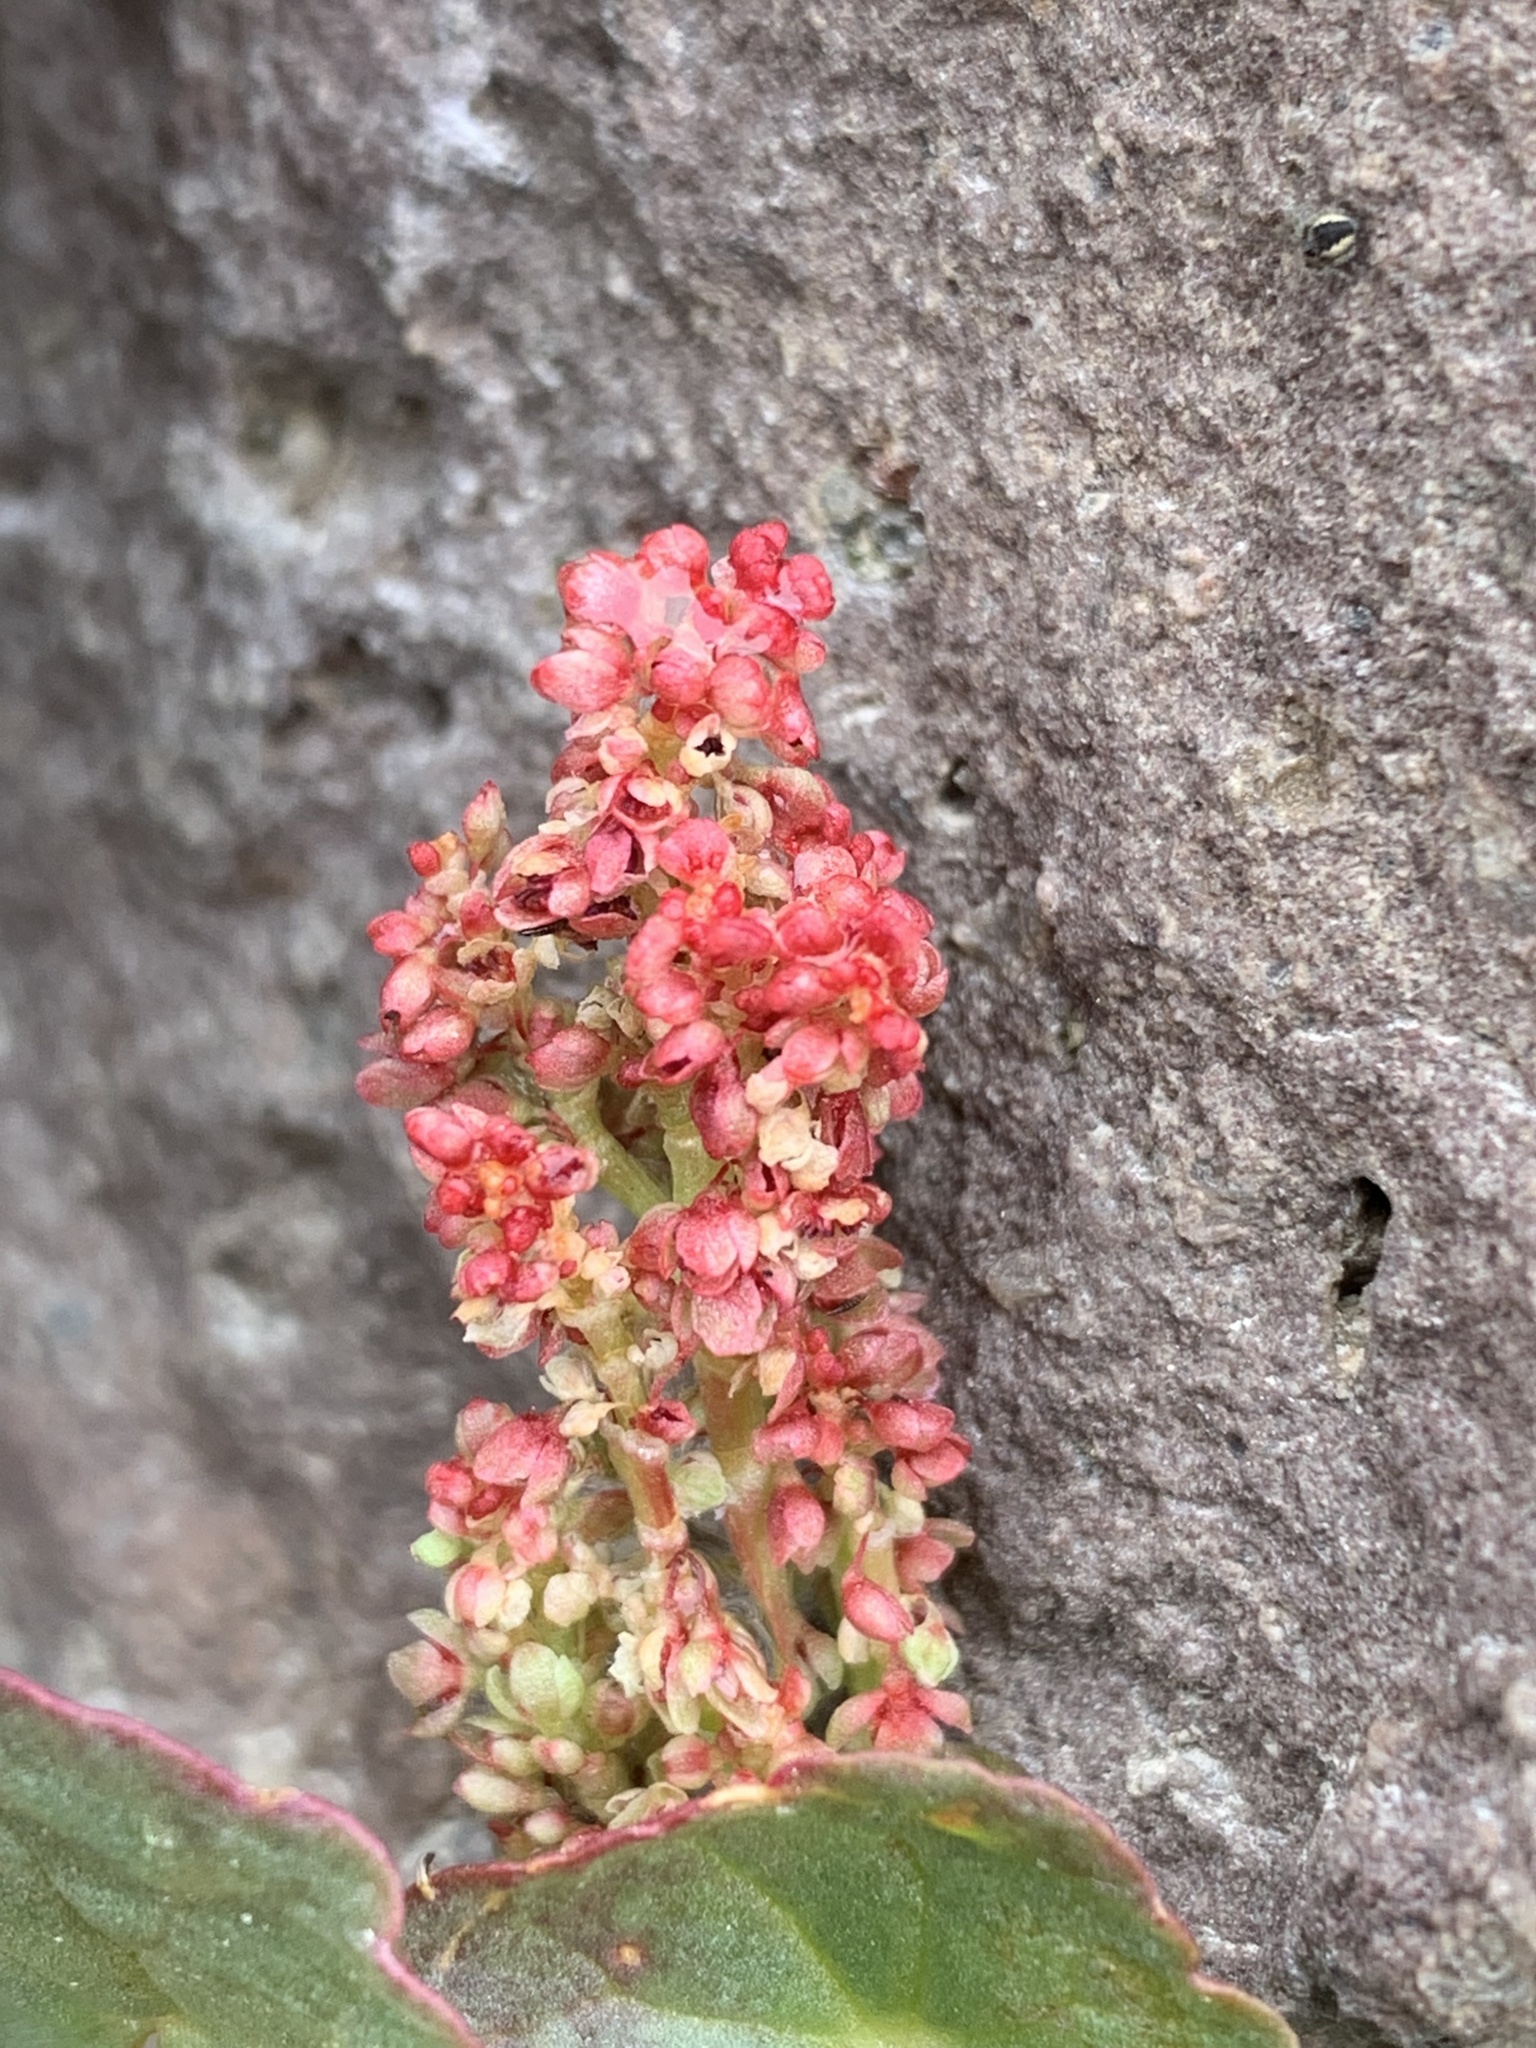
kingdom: Plantae
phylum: Tracheophyta
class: Magnoliopsida
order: Caryophyllales
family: Polygonaceae
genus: Oxyria
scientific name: Oxyria digyna
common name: Alpine mountain-sorrel
